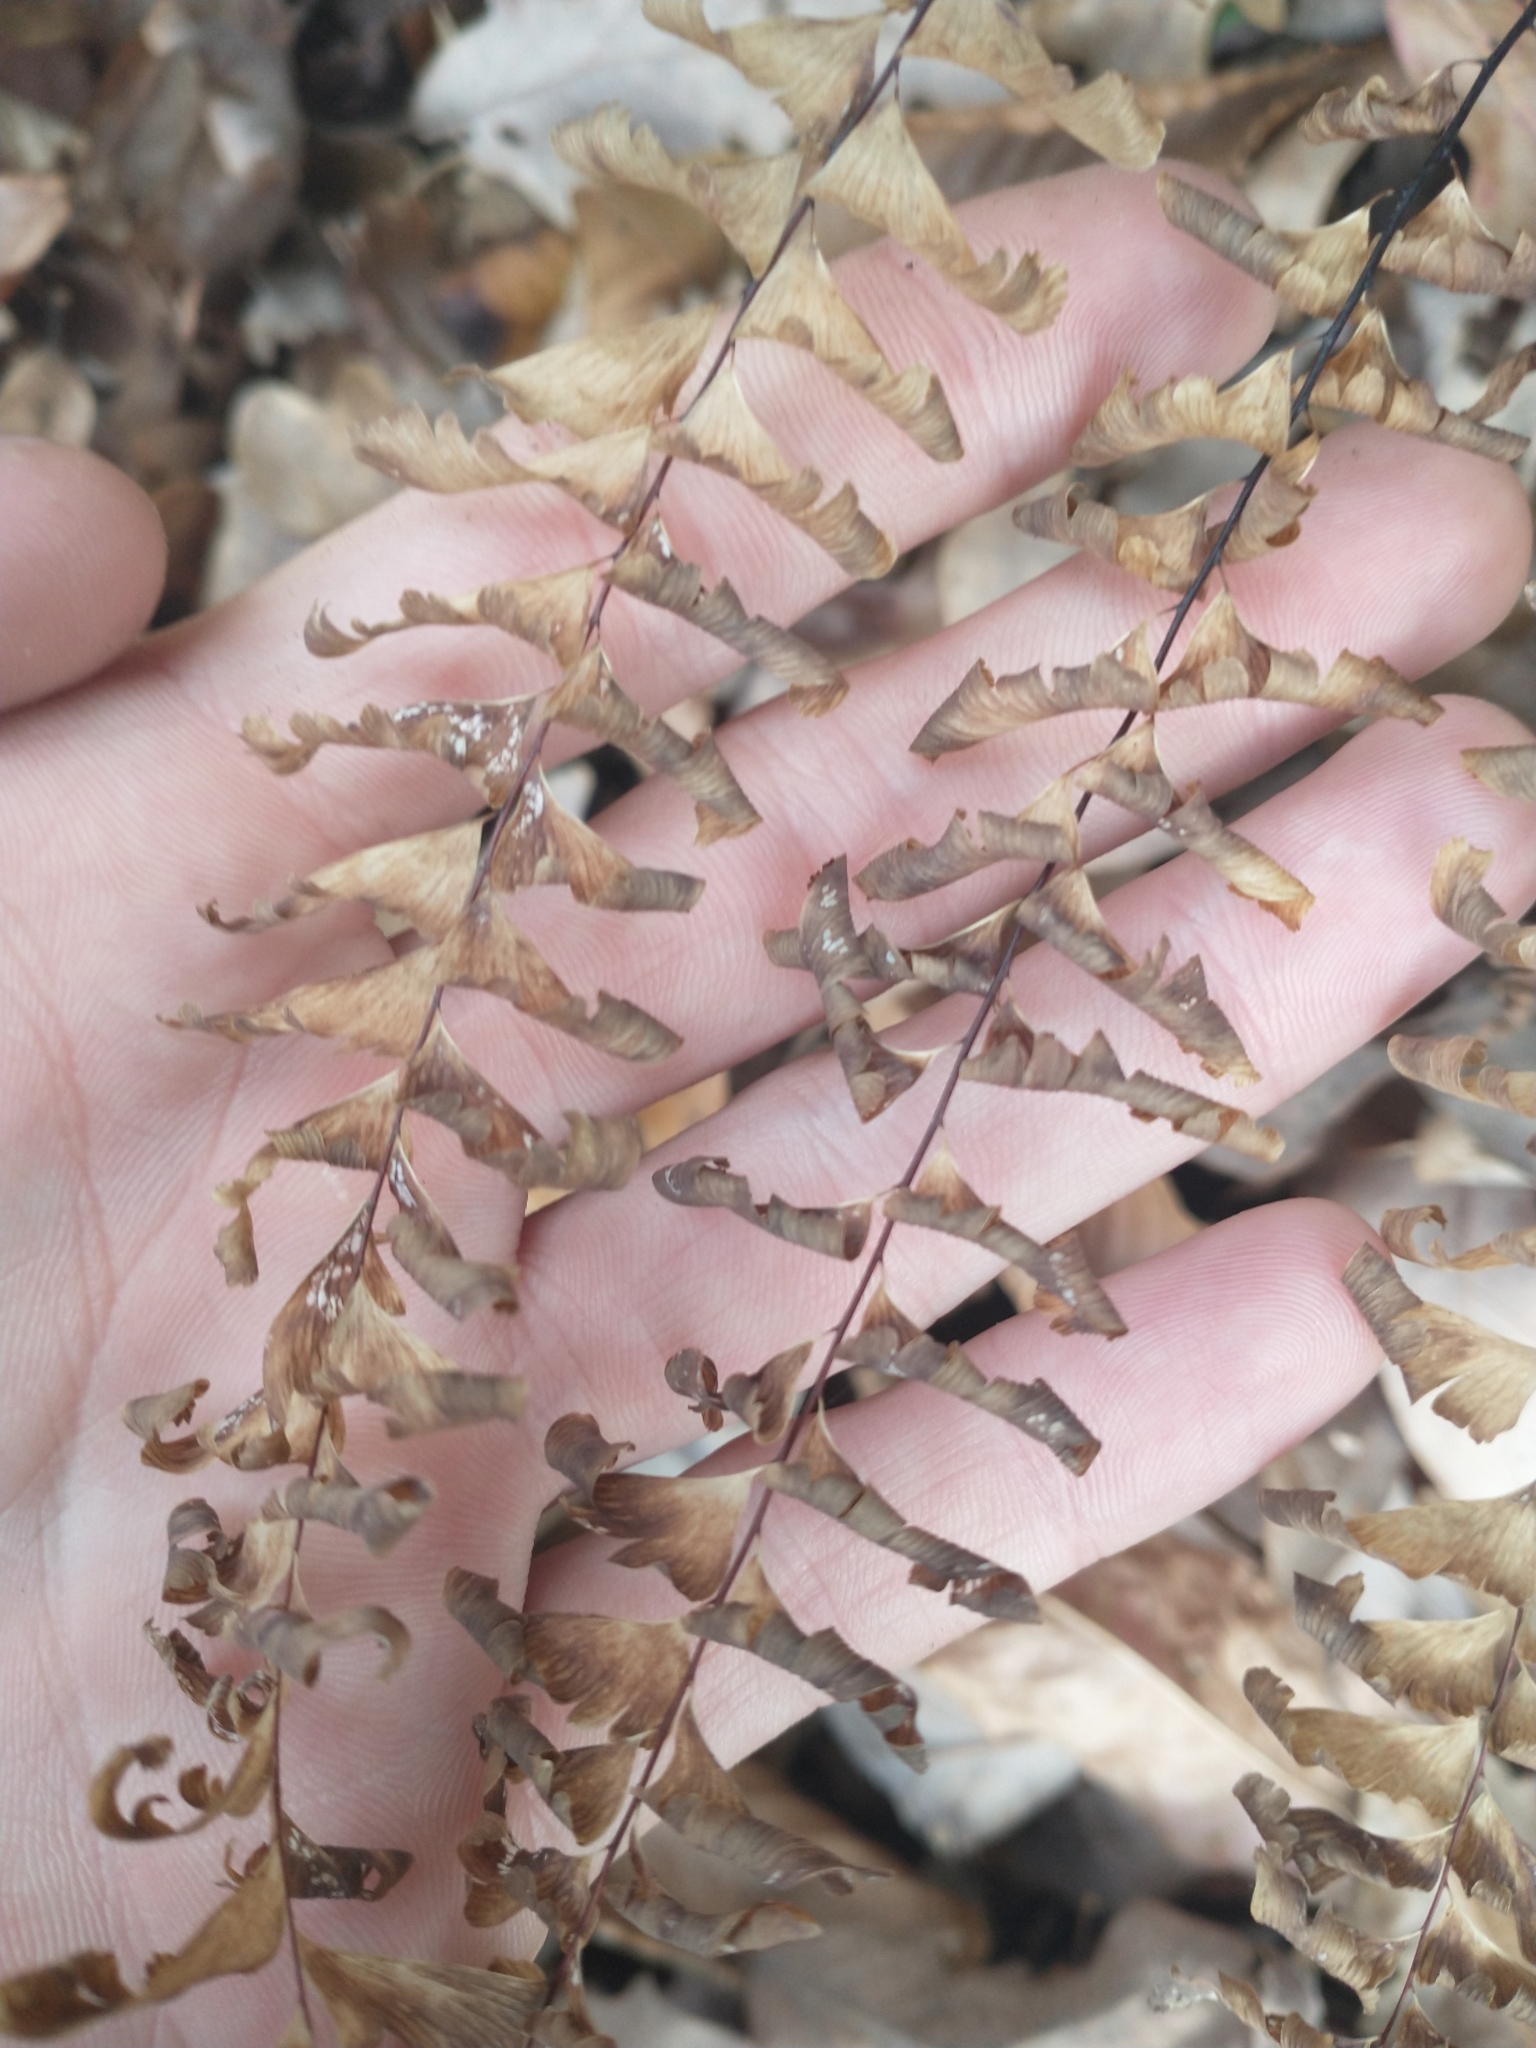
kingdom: Plantae
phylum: Tracheophyta
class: Polypodiopsida
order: Polypodiales
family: Pteridaceae
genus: Adiantum
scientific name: Adiantum pedatum
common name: Five-finger fern
